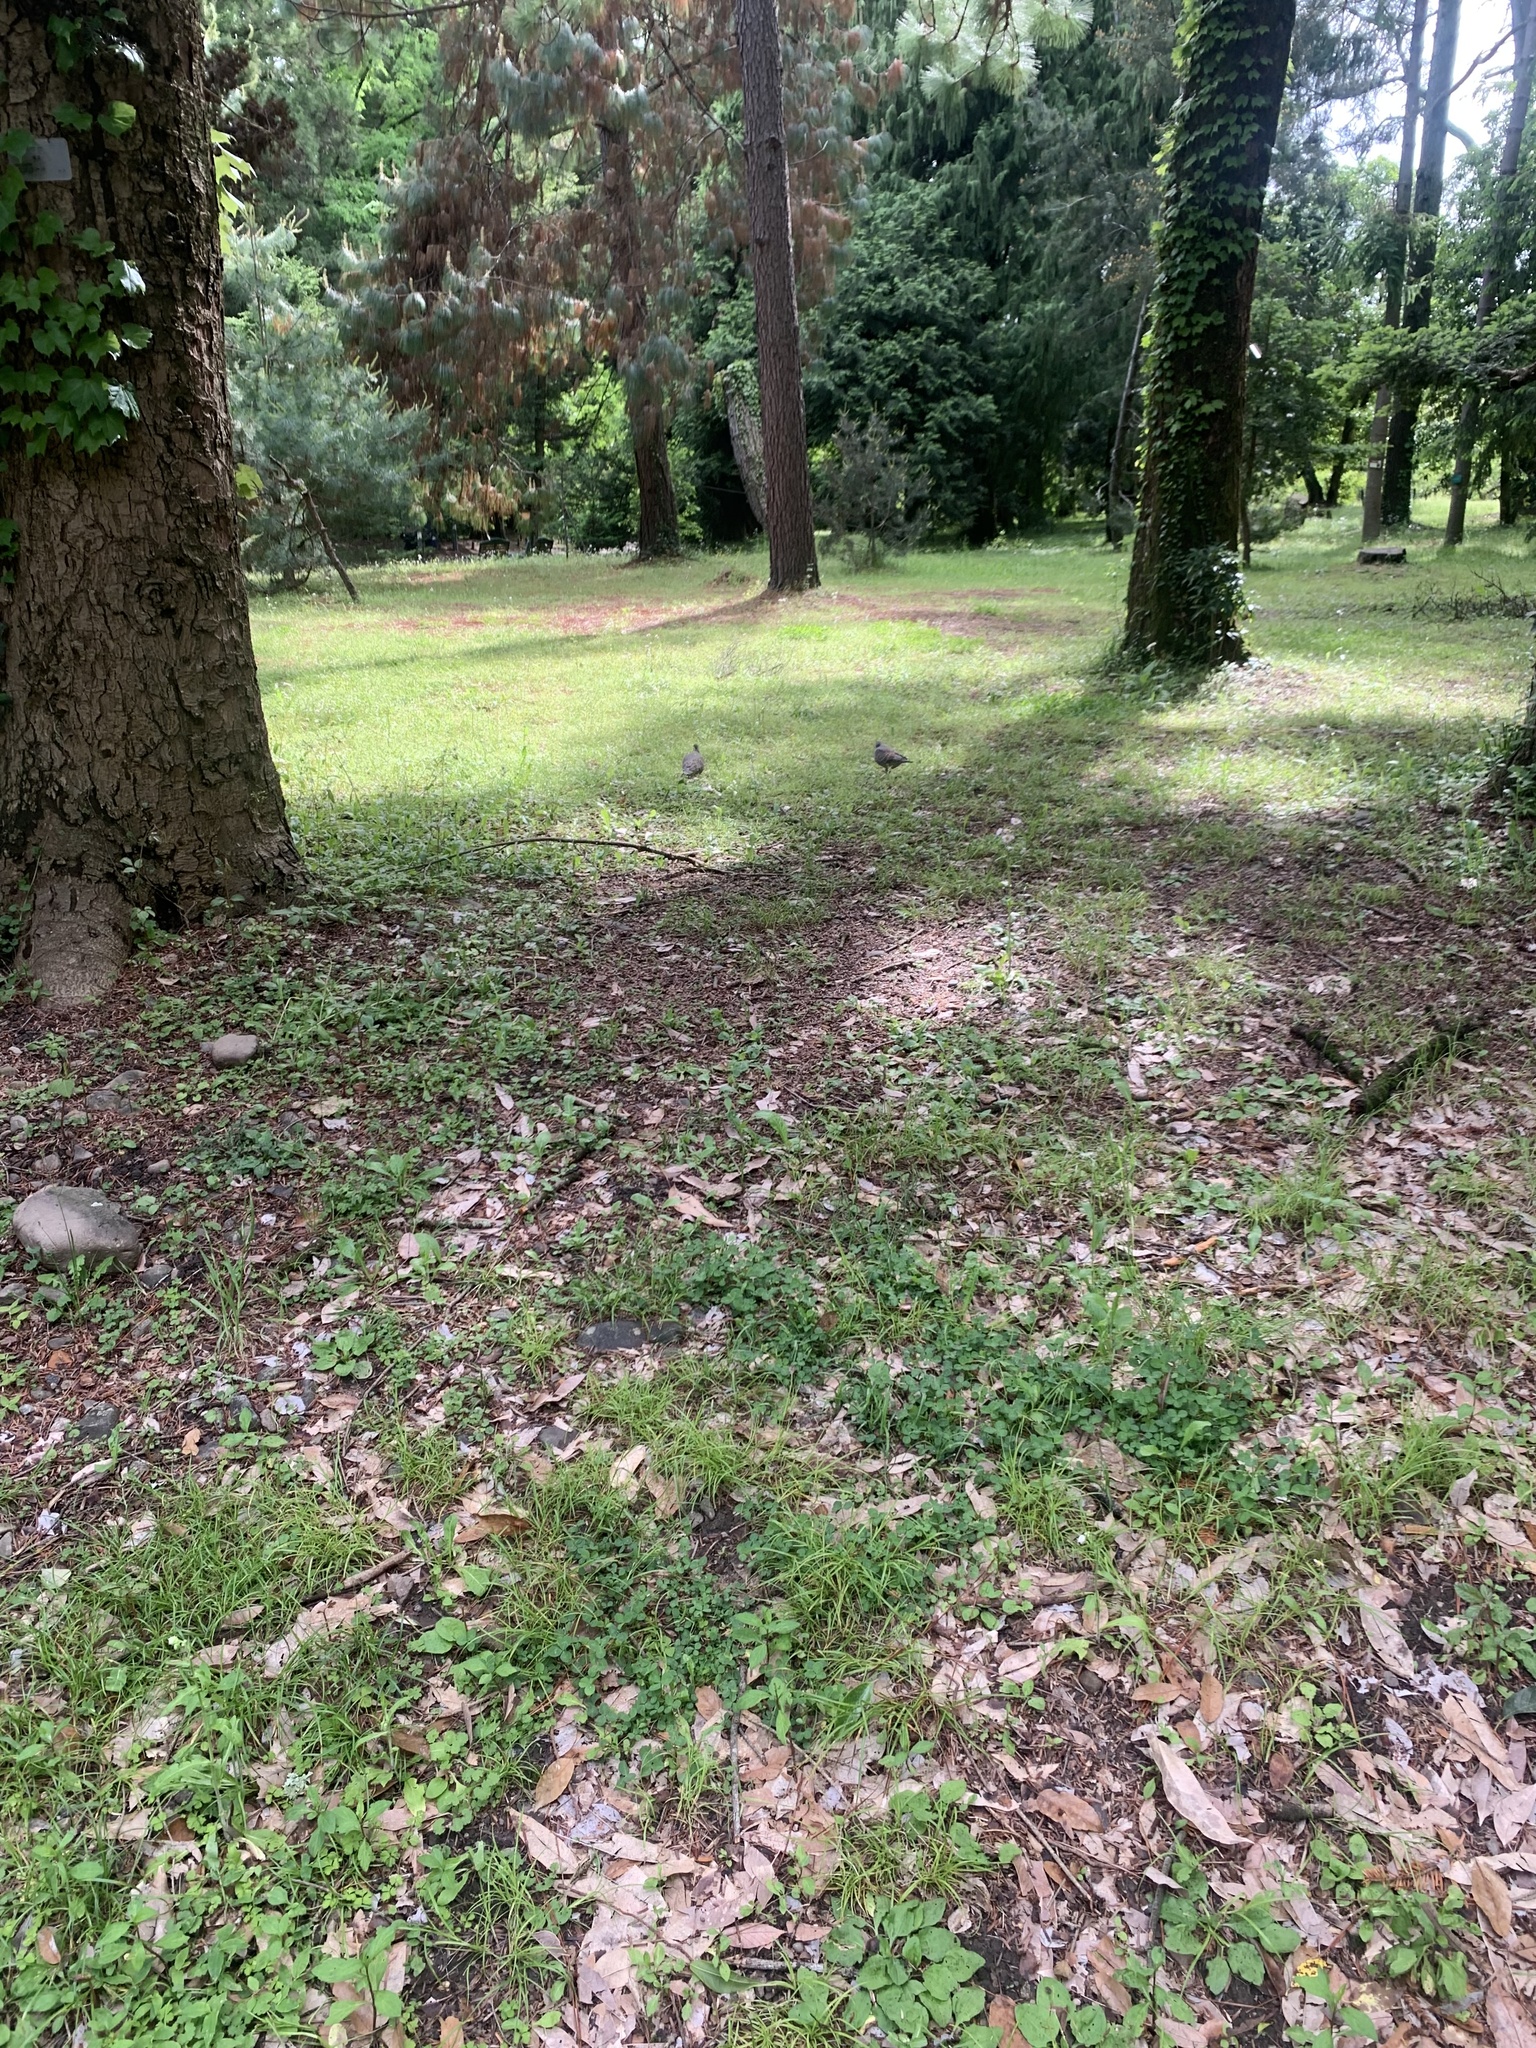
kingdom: Animalia
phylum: Chordata
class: Aves
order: Columbiformes
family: Columbidae
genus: Streptopelia
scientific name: Streptopelia orientalis
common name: Oriental turtle dove
